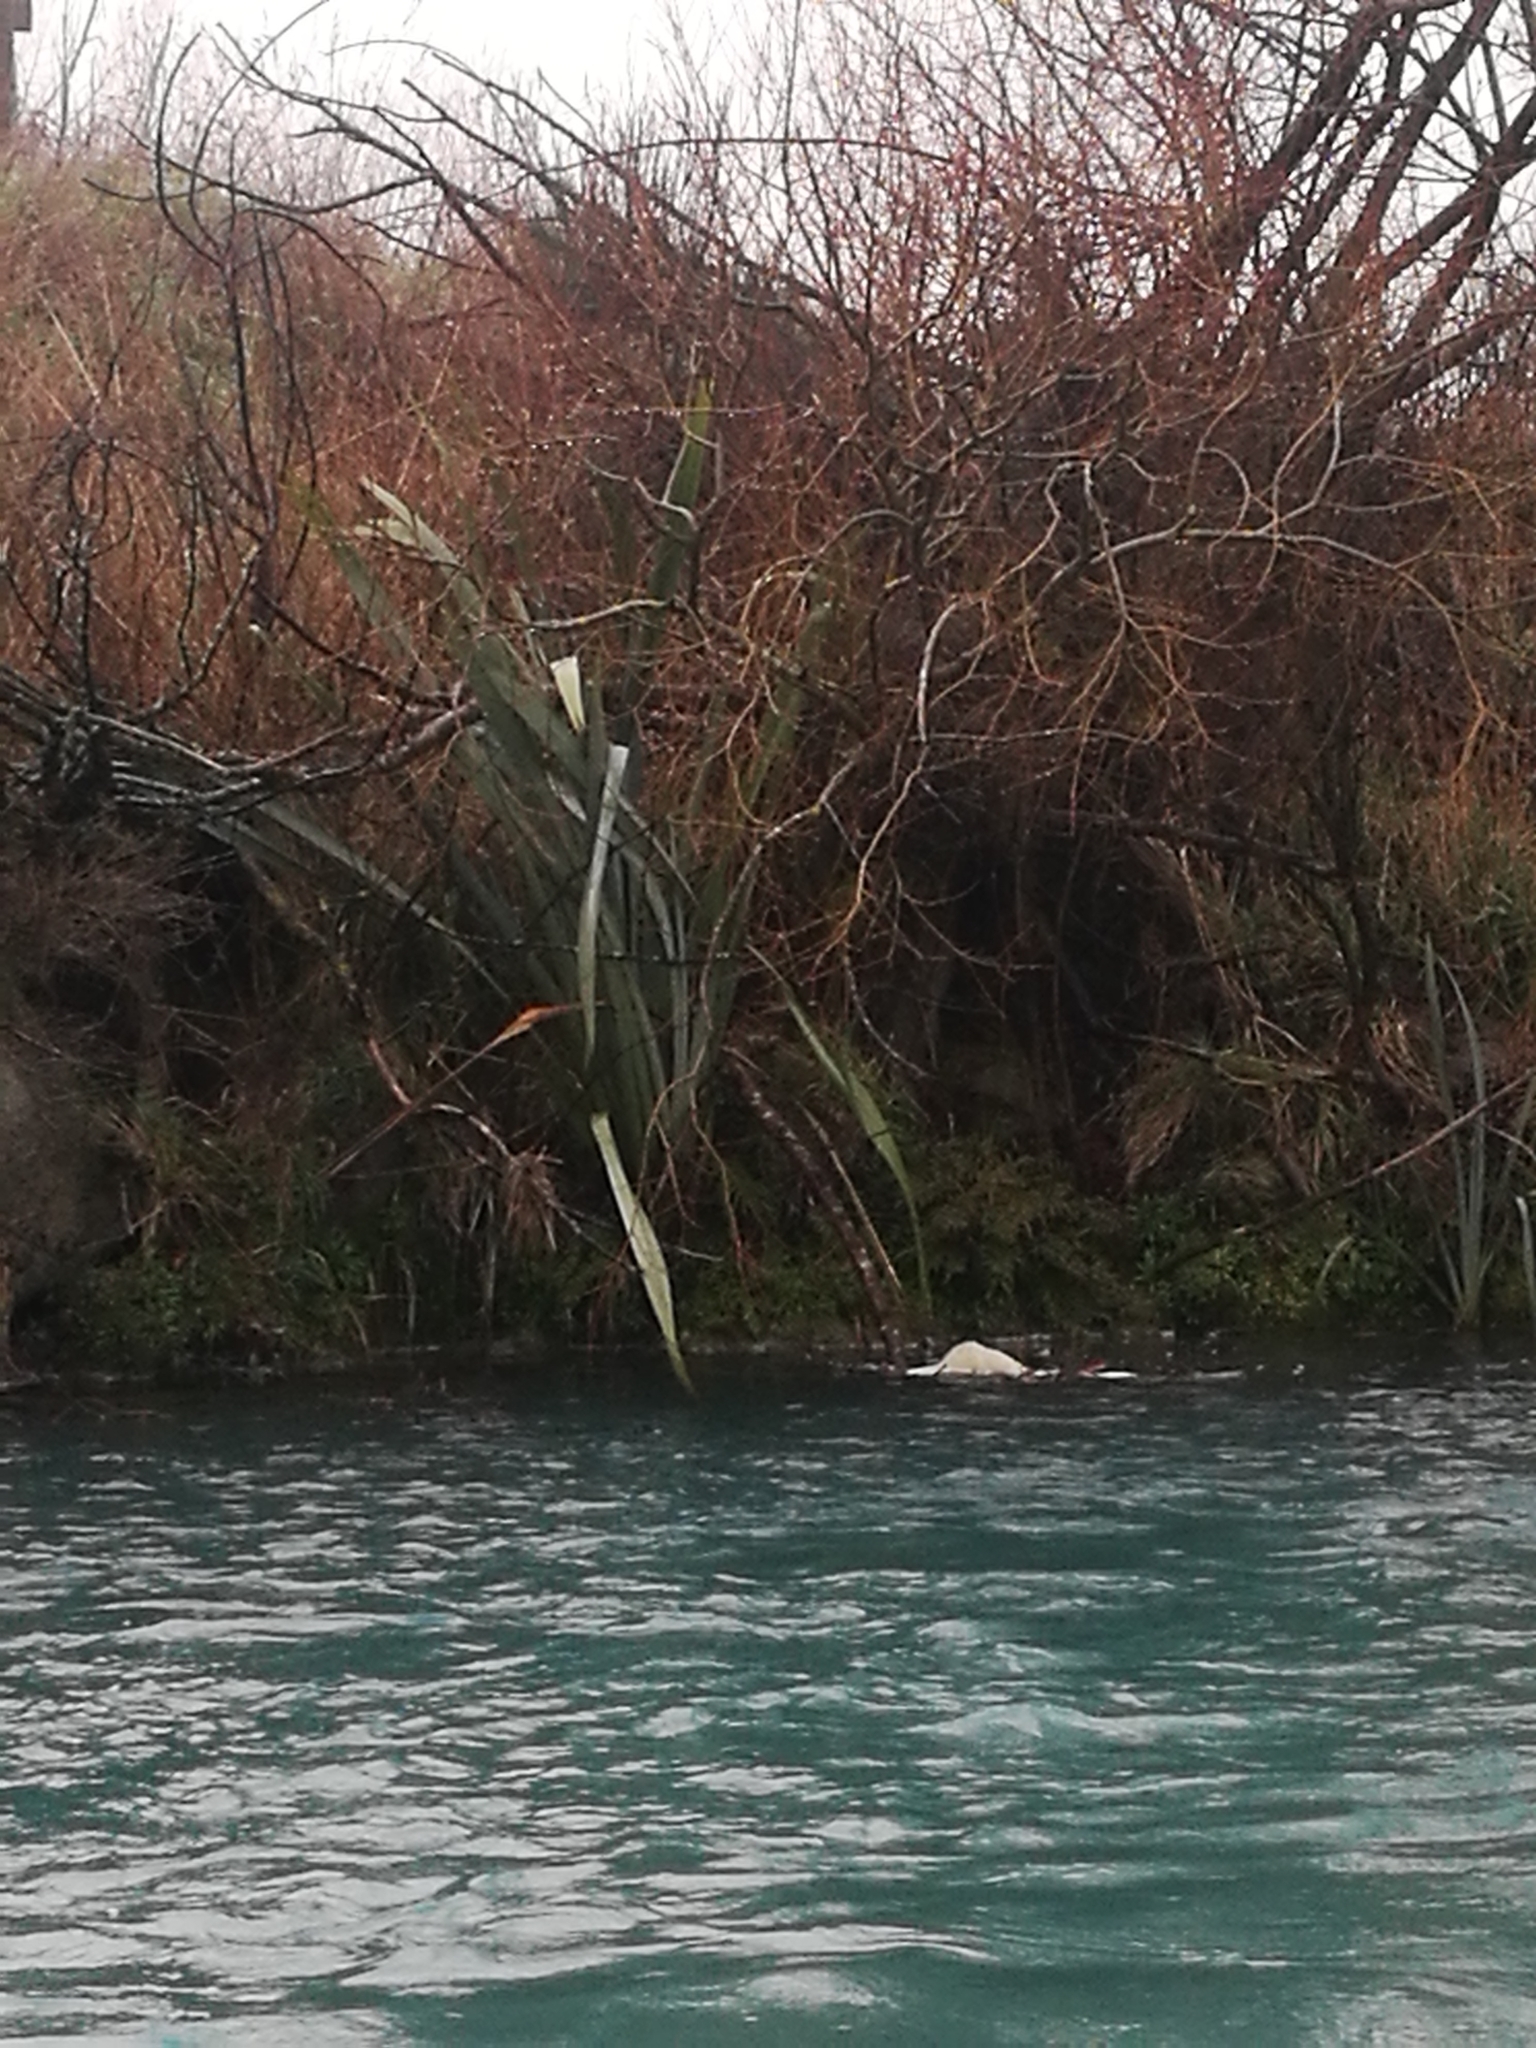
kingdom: Plantae
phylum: Tracheophyta
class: Liliopsida
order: Asparagales
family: Asphodelaceae
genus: Phormium
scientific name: Phormium tenax
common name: New zealand flax
